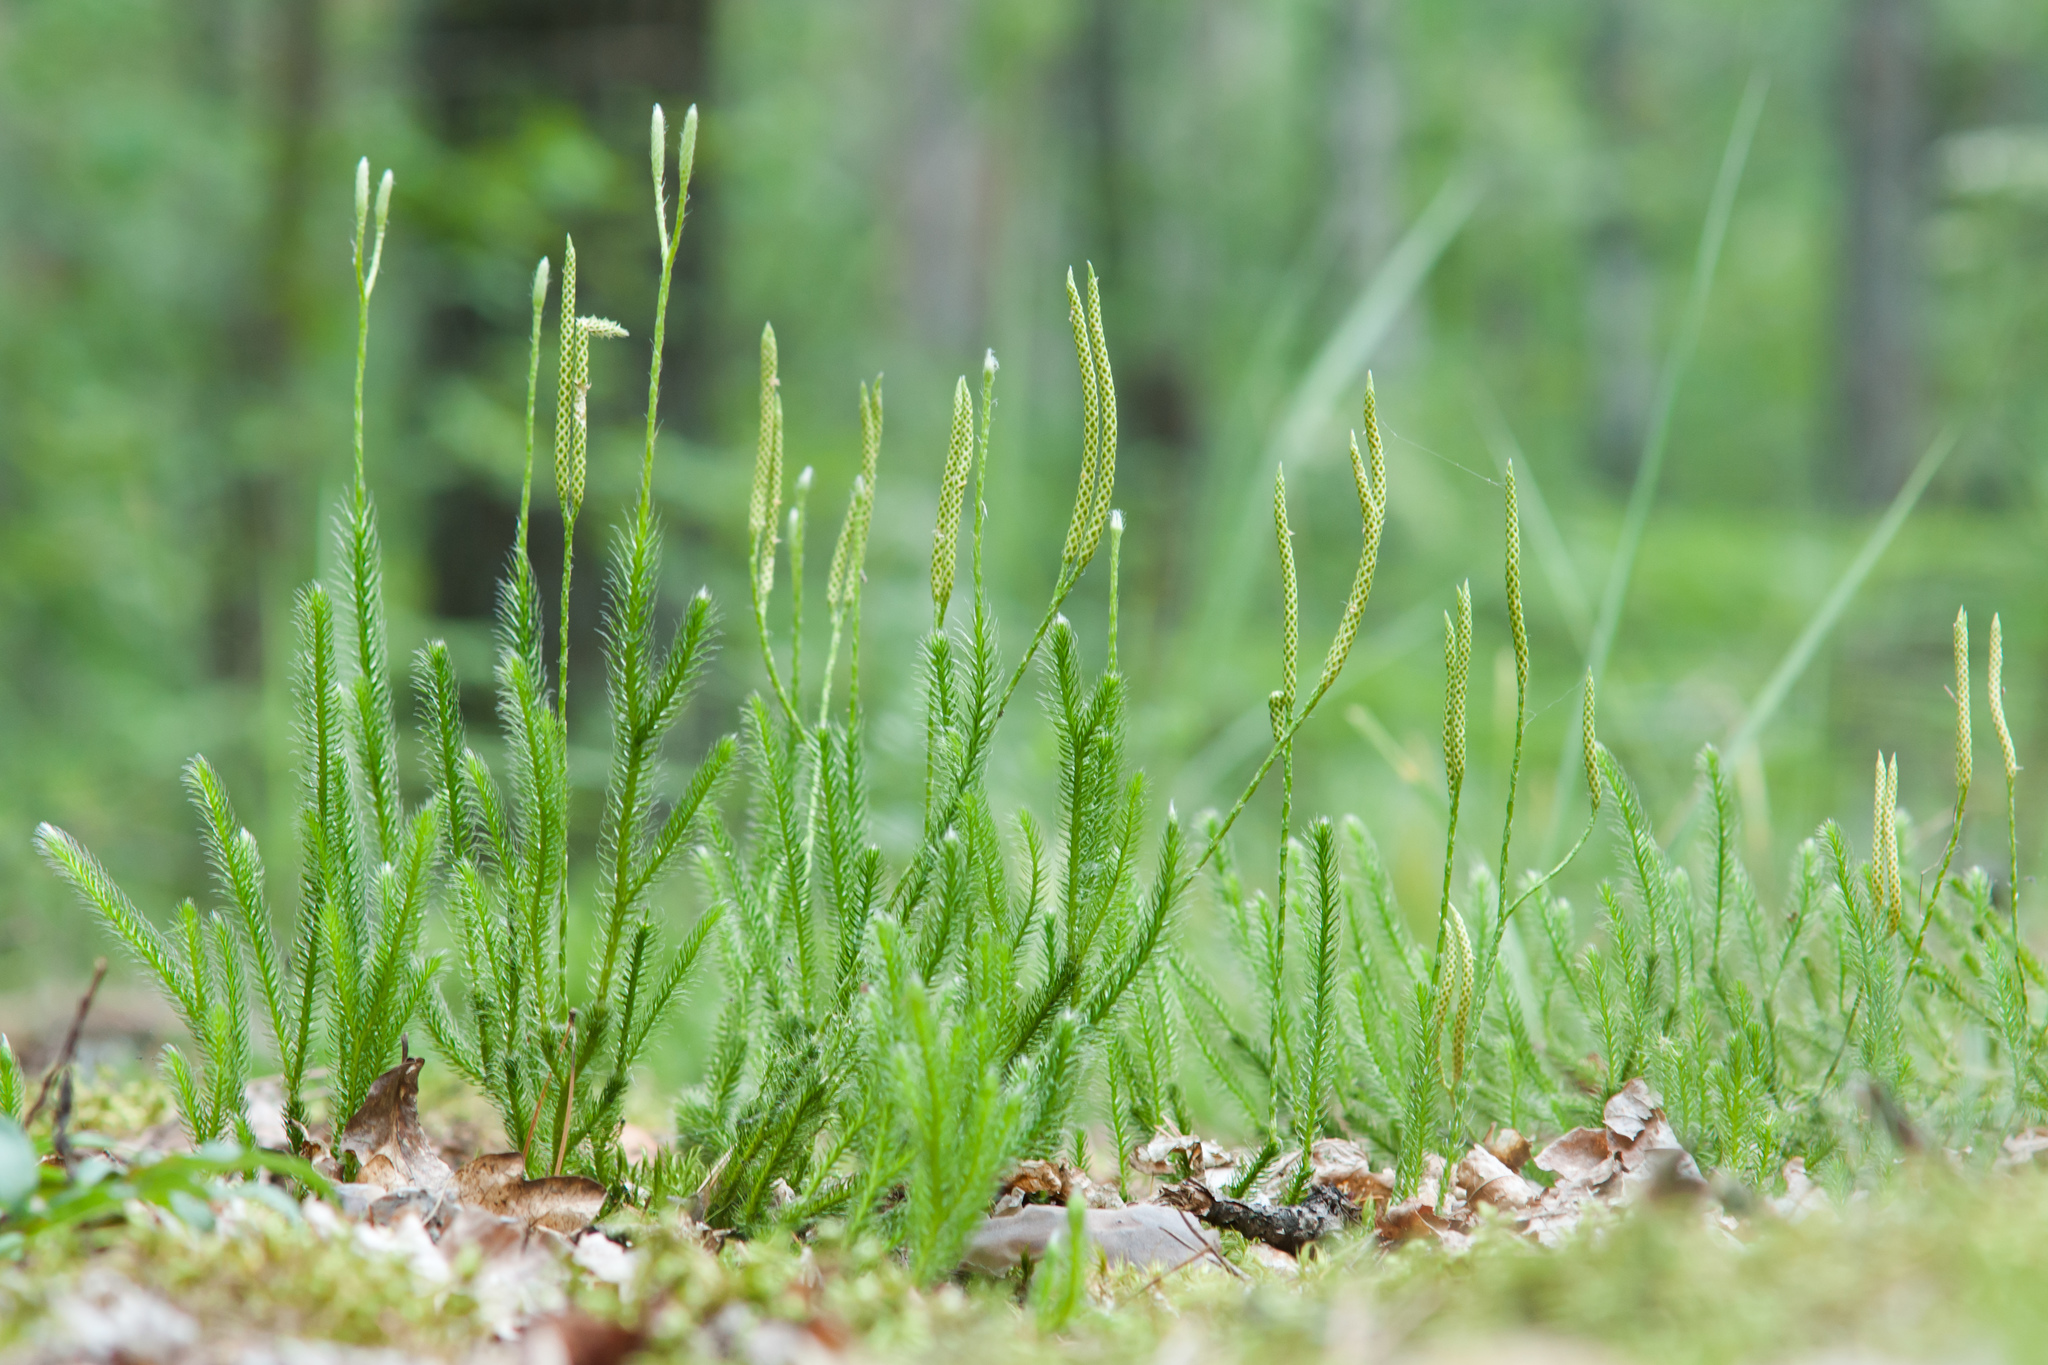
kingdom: Plantae
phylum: Tracheophyta
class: Lycopodiopsida
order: Lycopodiales
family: Lycopodiaceae
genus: Lycopodium
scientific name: Lycopodium clavatum
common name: Stag's-horn clubmoss
